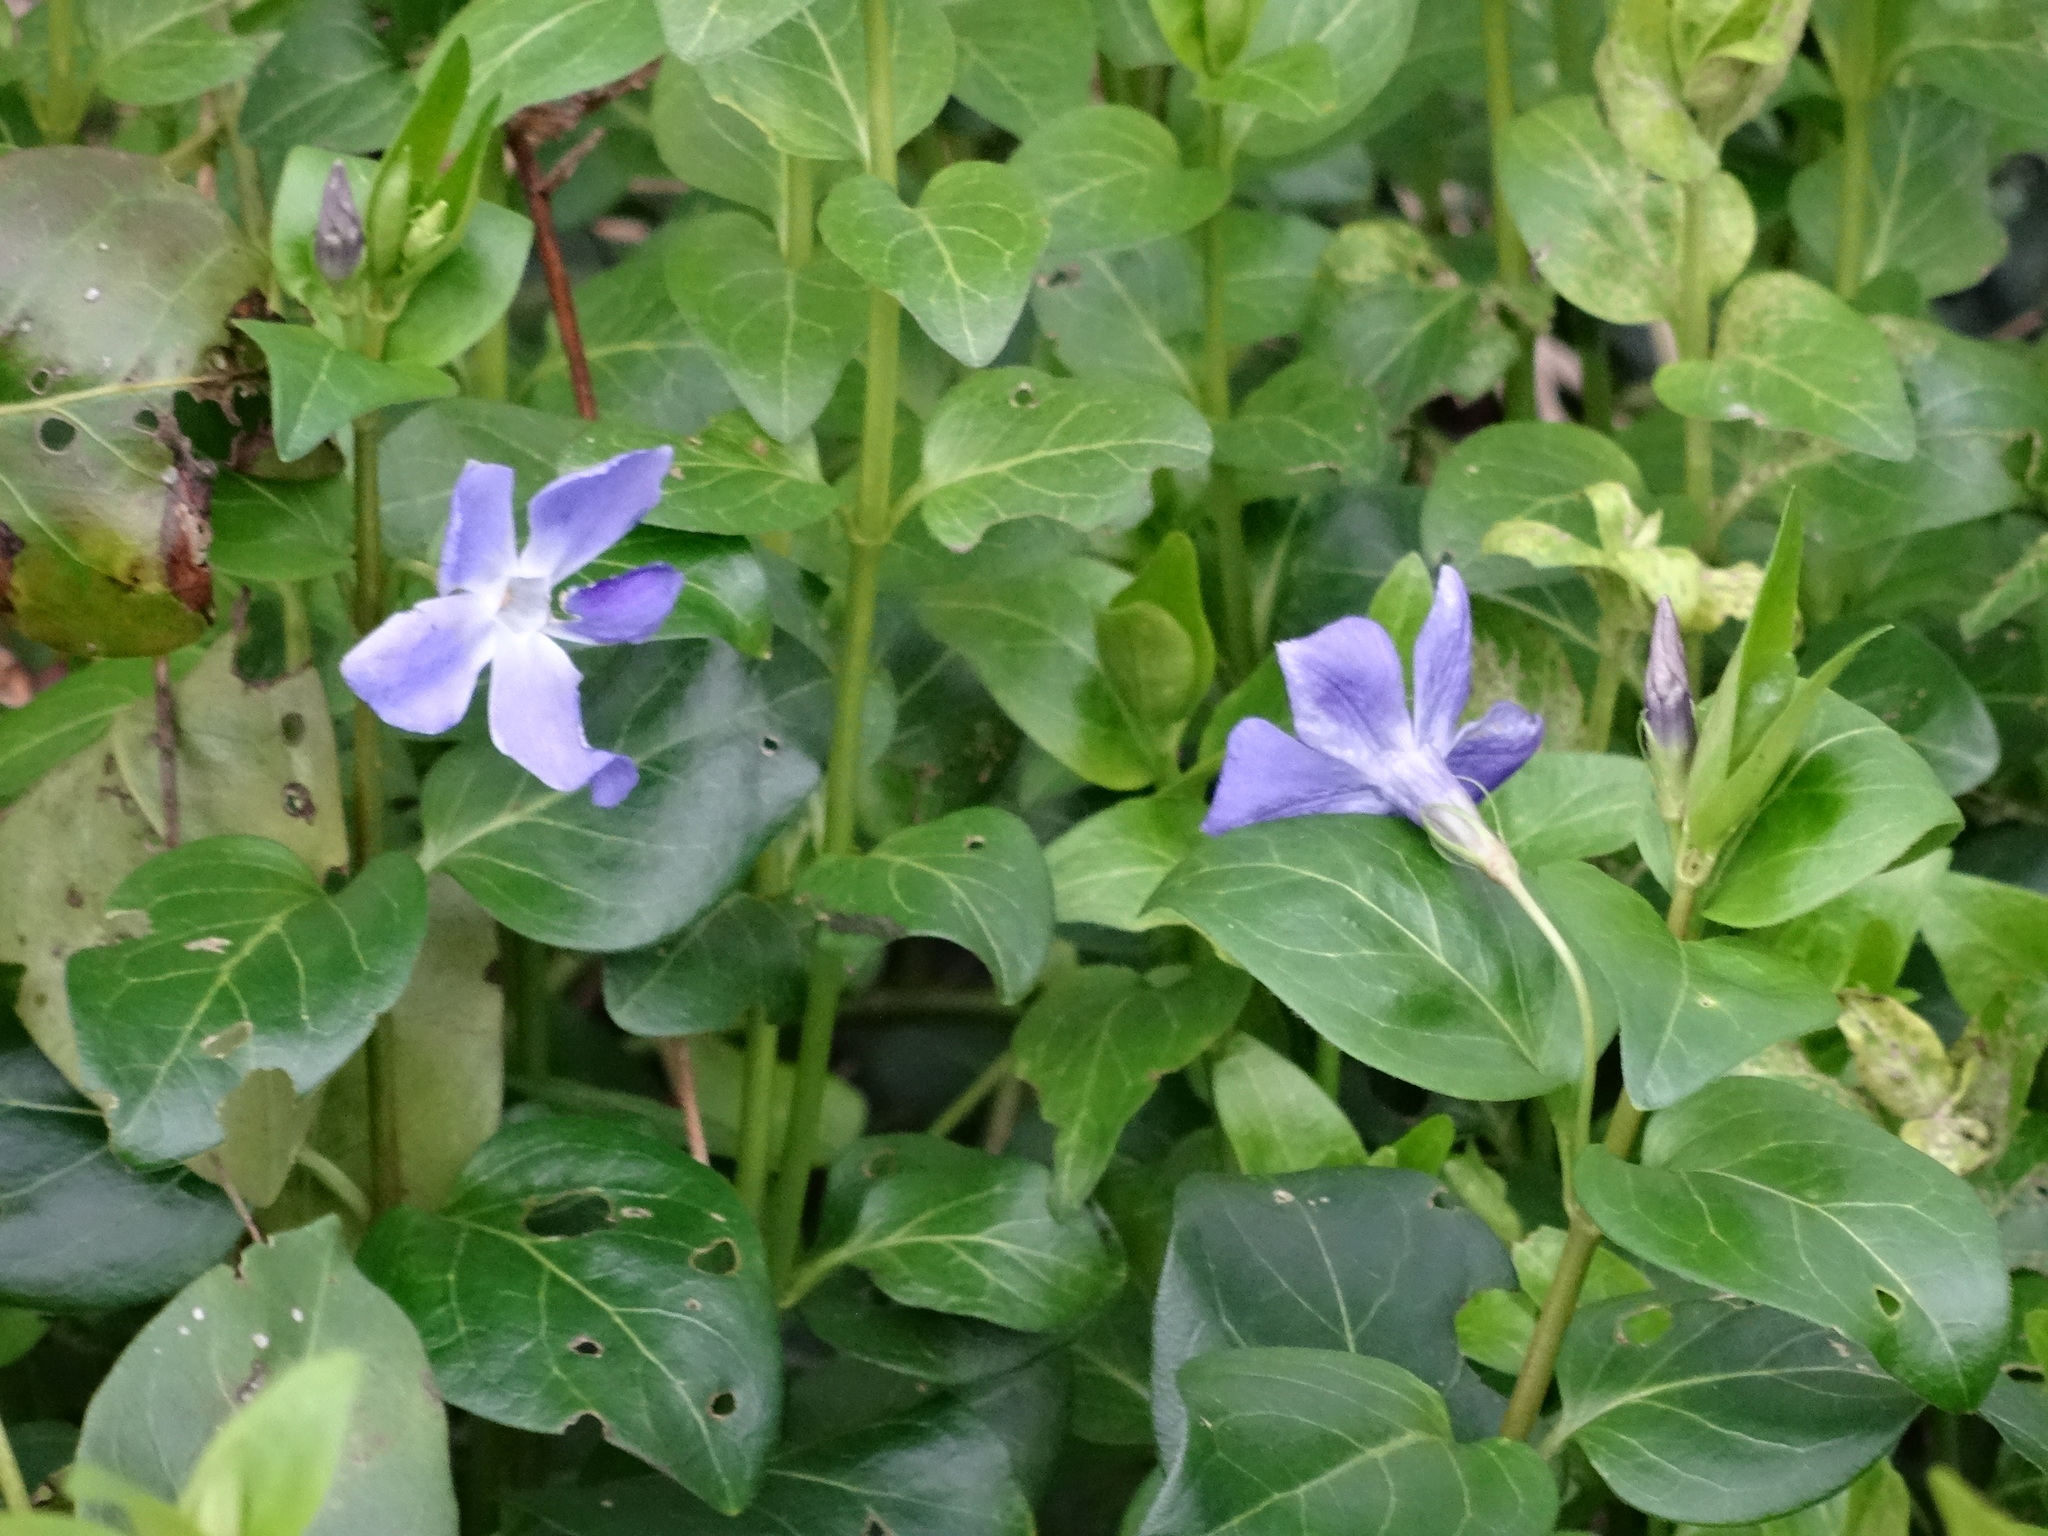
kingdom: Plantae
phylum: Tracheophyta
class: Magnoliopsida
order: Gentianales
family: Apocynaceae
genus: Vinca
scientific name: Vinca major
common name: Greater periwinkle
